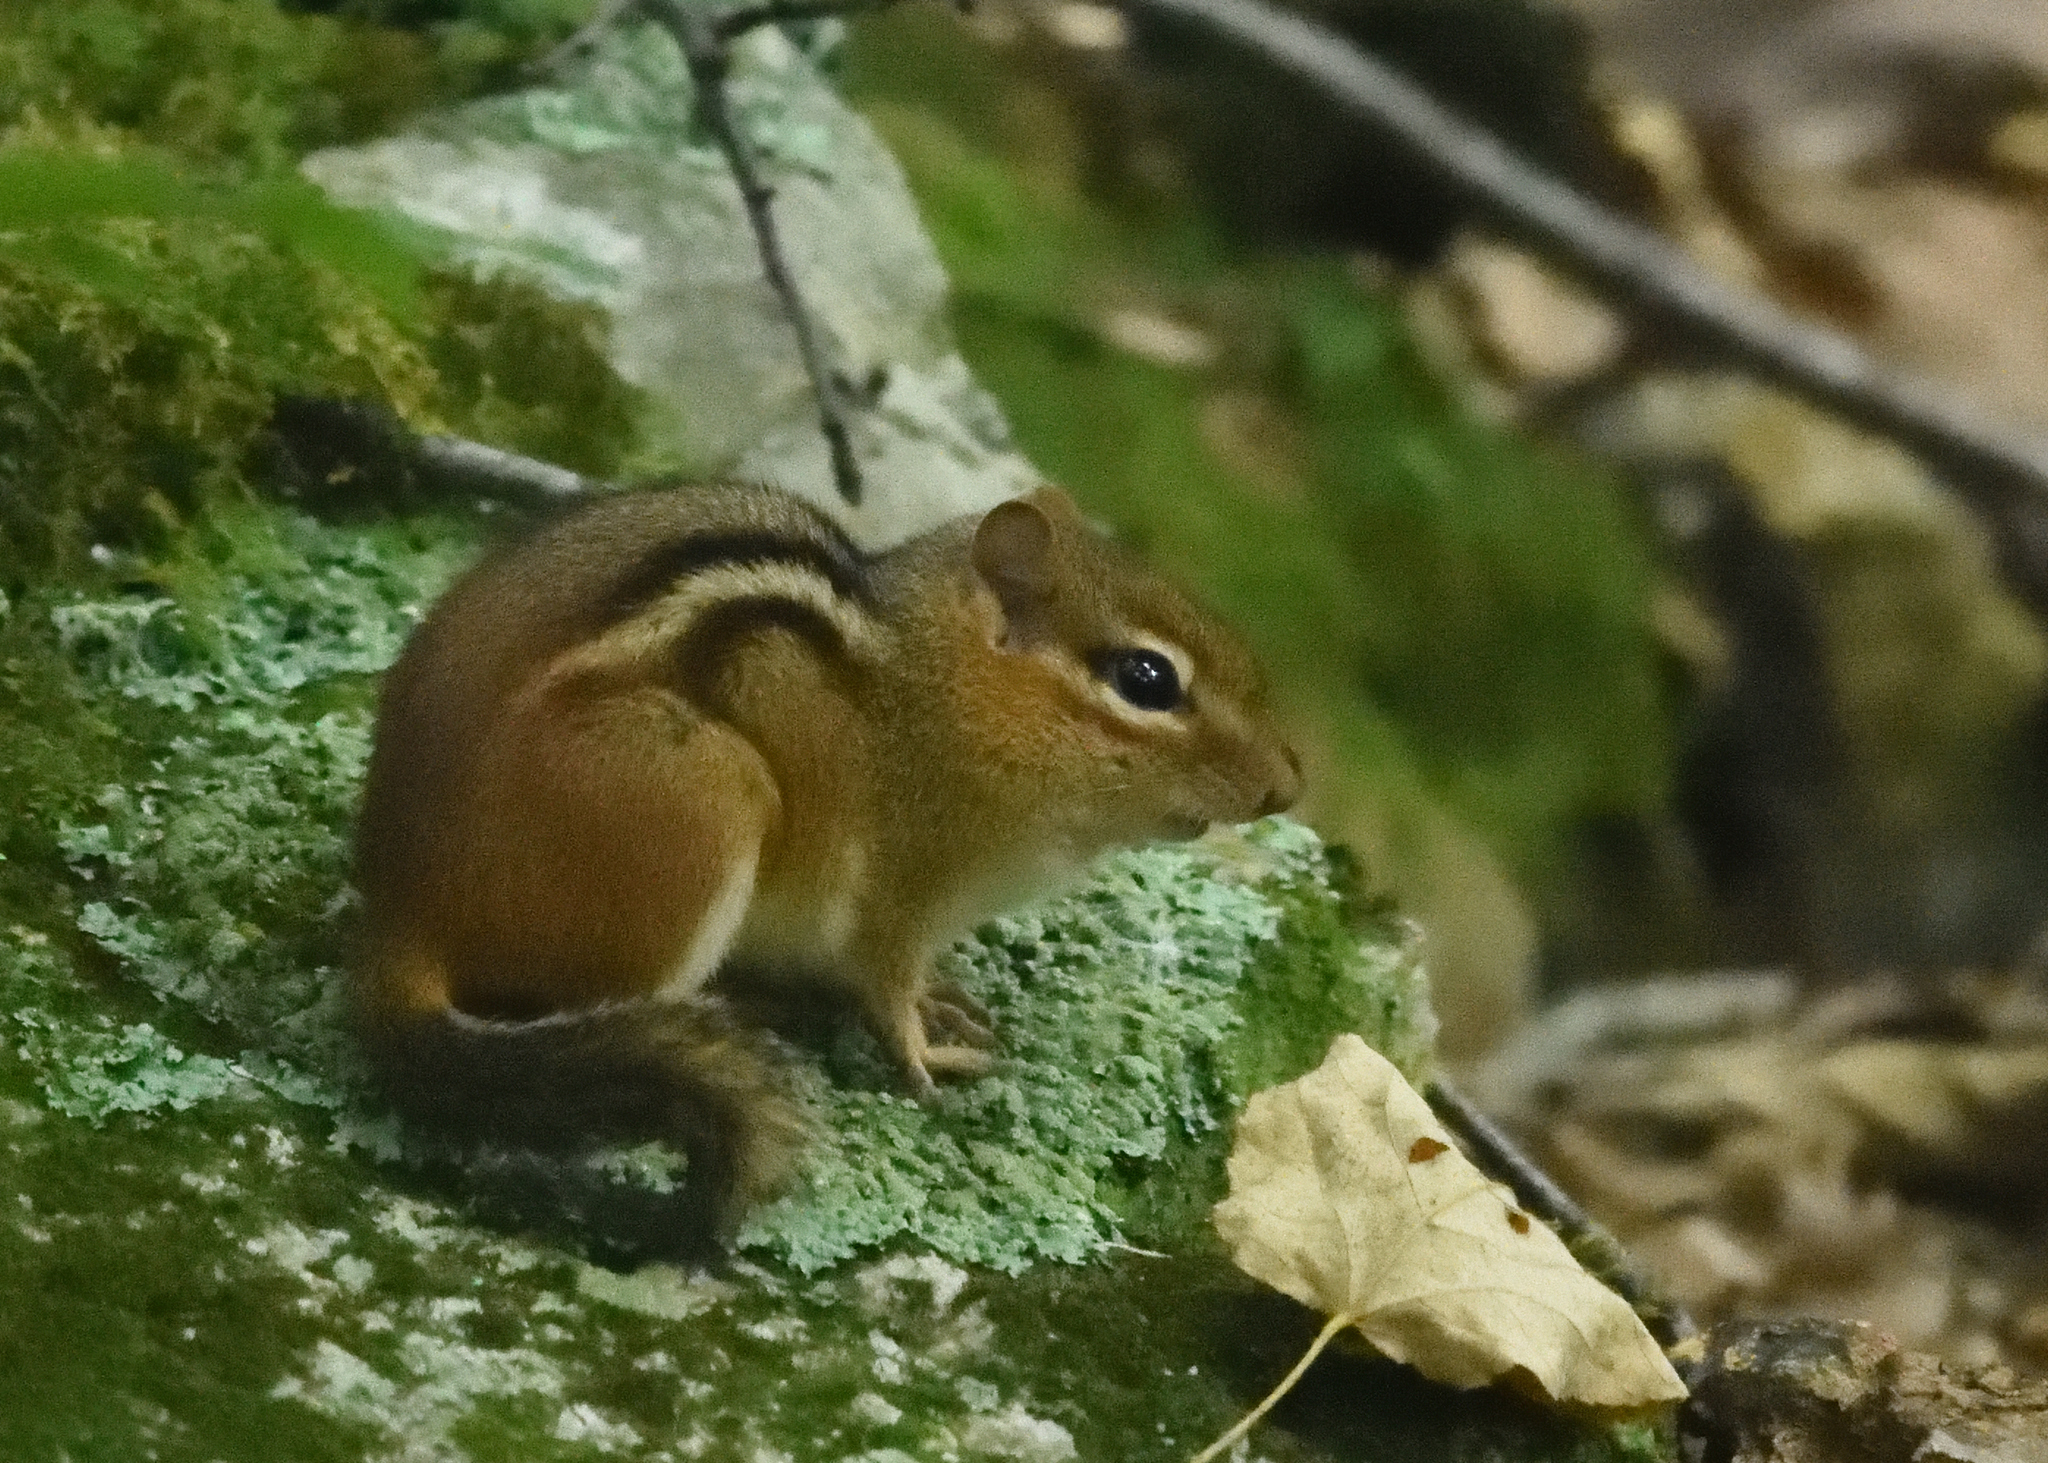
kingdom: Animalia
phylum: Chordata
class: Mammalia
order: Rodentia
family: Sciuridae
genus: Tamias
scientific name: Tamias striatus
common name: Eastern chipmunk
